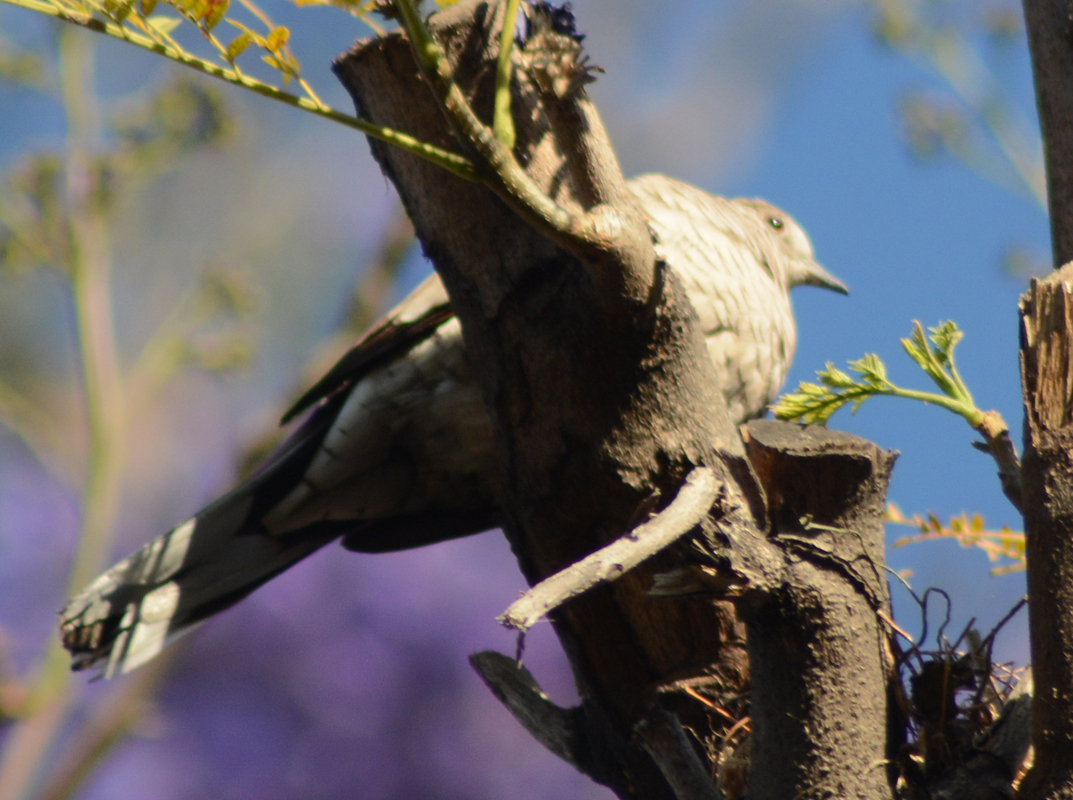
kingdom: Animalia
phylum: Chordata
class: Aves
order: Columbiformes
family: Columbidae
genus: Columbina
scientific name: Columbina inca
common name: Inca dove
